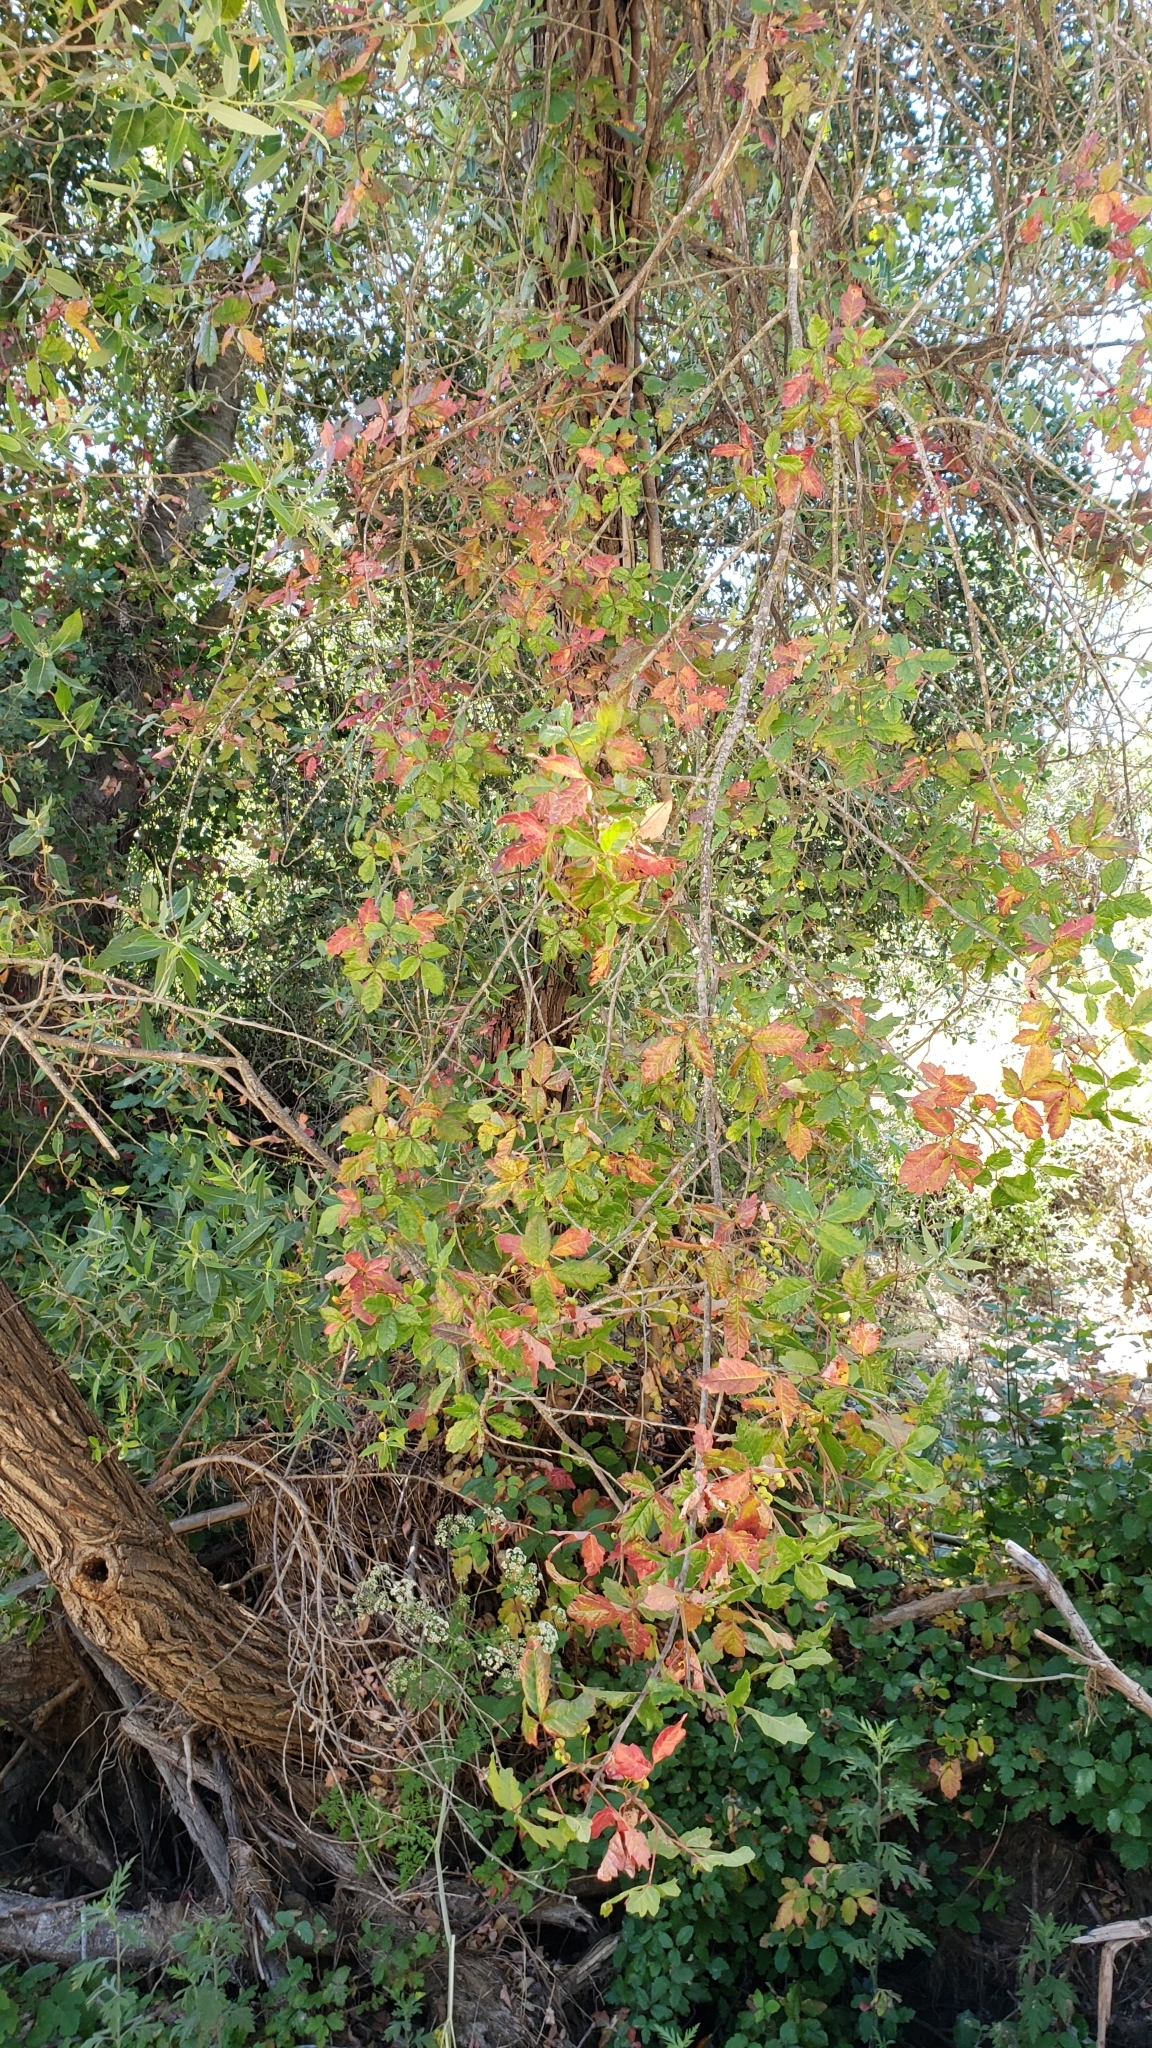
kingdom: Plantae
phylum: Tracheophyta
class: Magnoliopsida
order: Sapindales
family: Anacardiaceae
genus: Toxicodendron
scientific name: Toxicodendron diversilobum
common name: Pacific poison-oak
